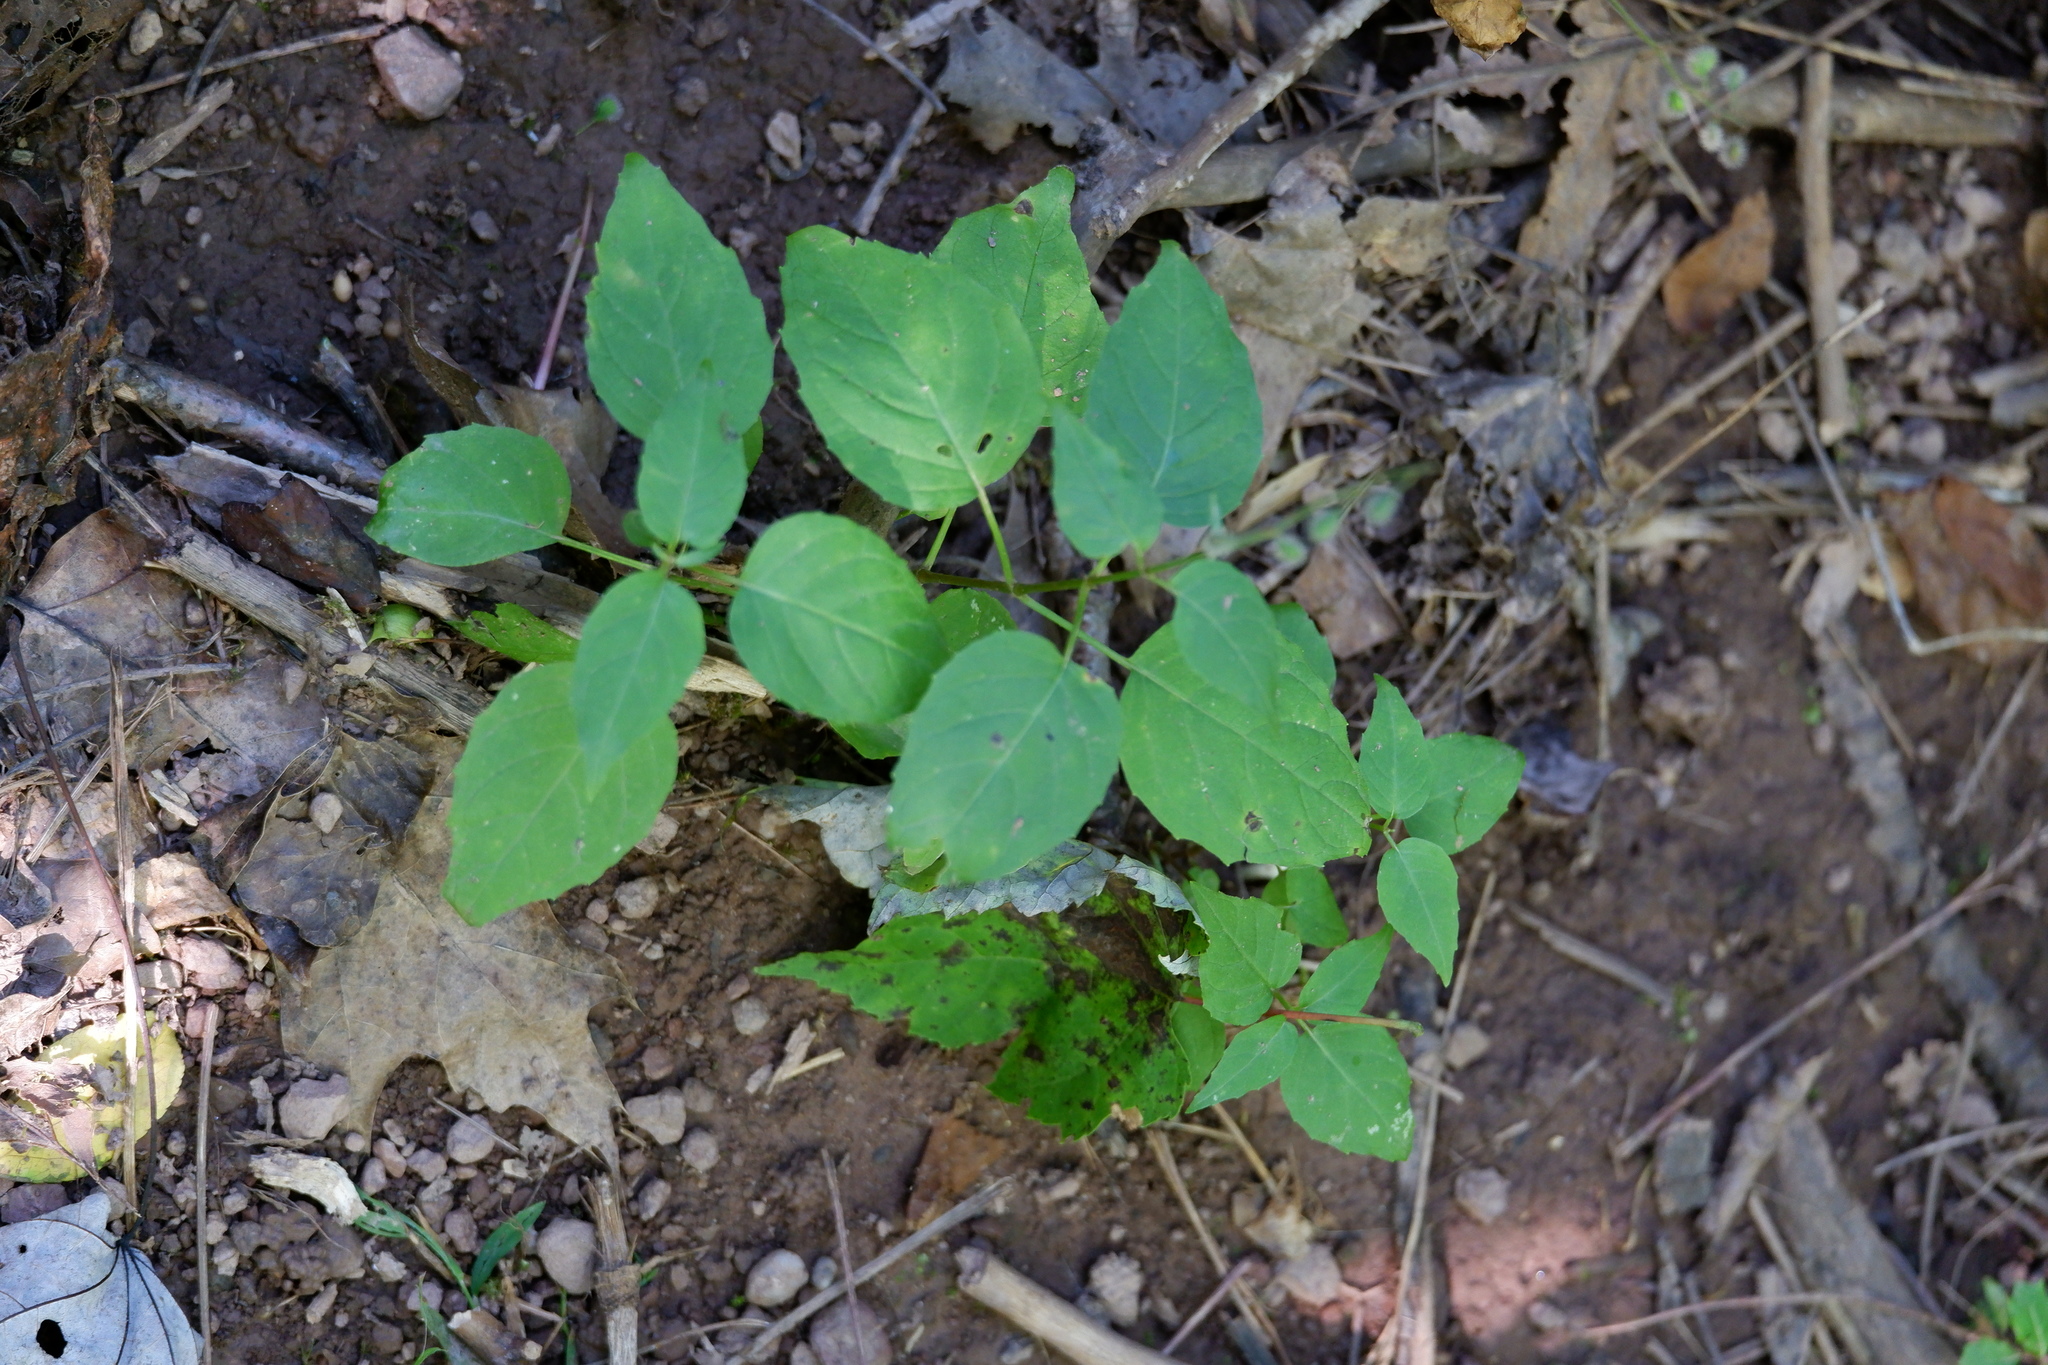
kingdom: Plantae
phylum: Tracheophyta
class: Magnoliopsida
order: Myrtales
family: Onagraceae
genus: Circaea
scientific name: Circaea canadensis
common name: Broad-leaved enchanter's nightshade
